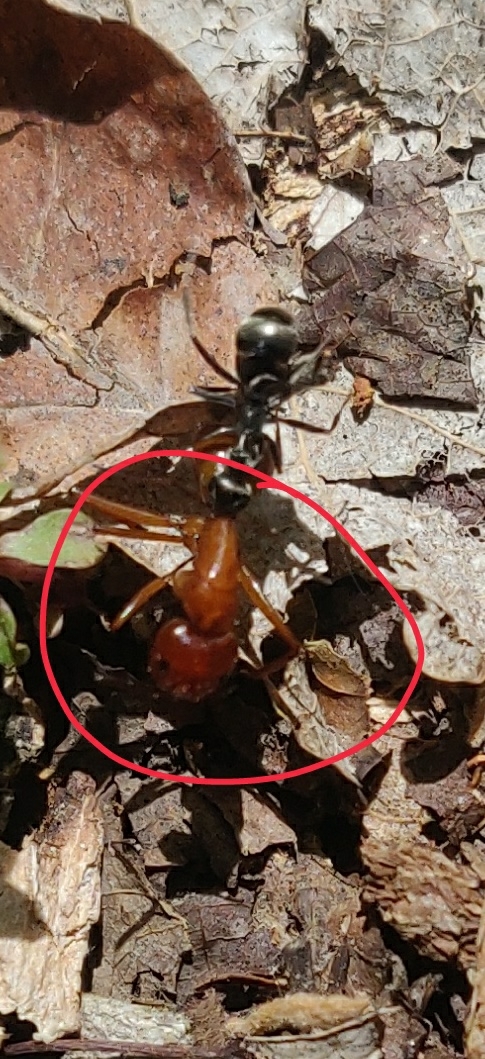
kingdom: Animalia
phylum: Arthropoda
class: Insecta
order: Hymenoptera
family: Formicidae
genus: Camponotus
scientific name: Camponotus castaneus
